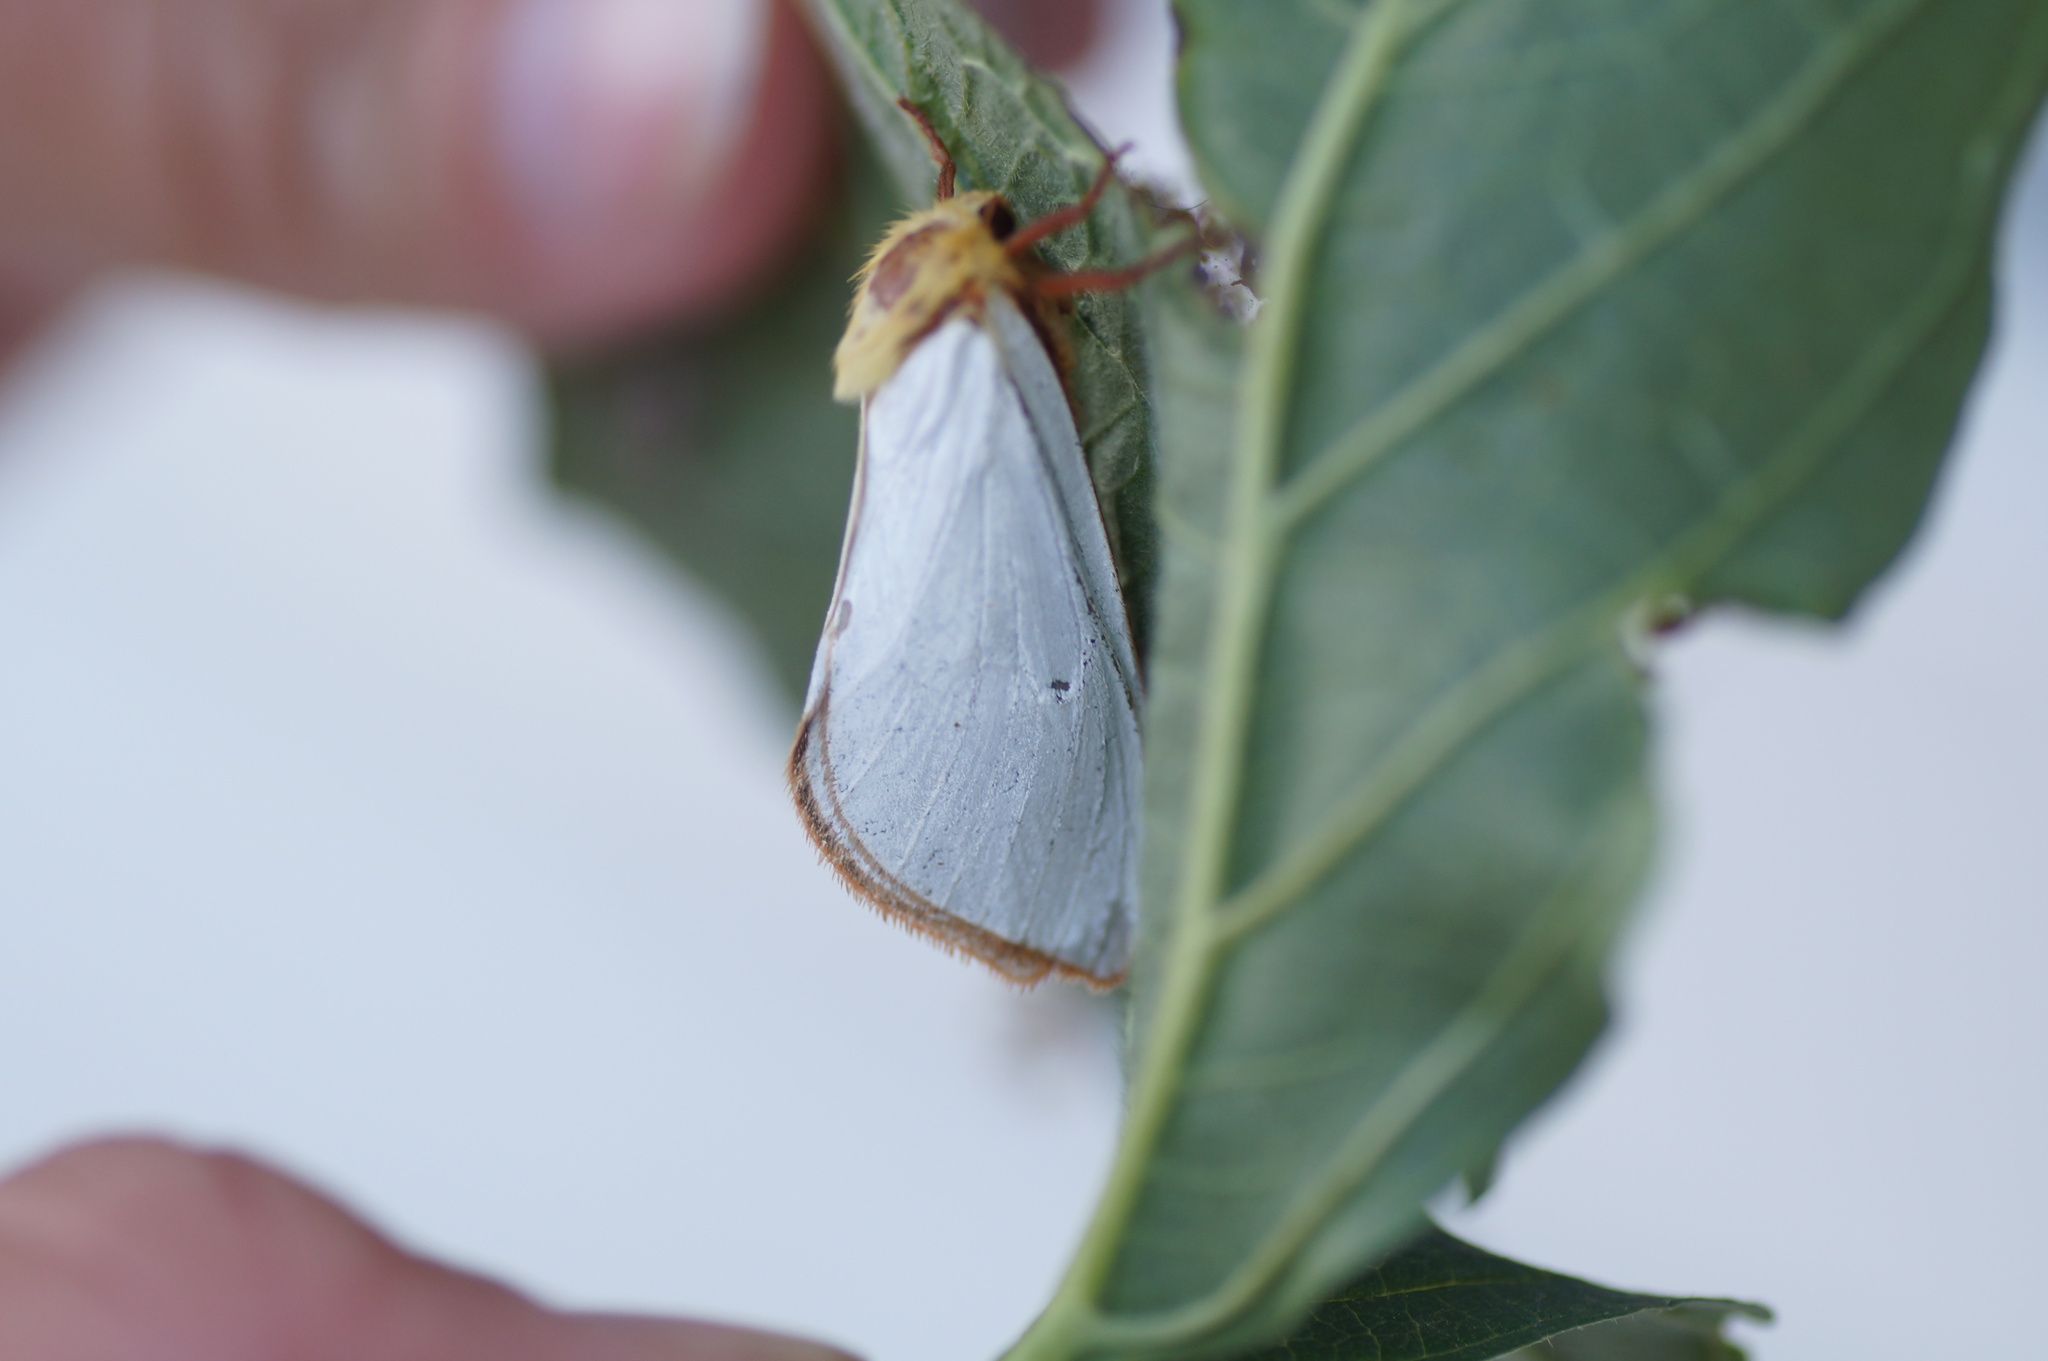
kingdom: Animalia
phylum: Arthropoda
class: Insecta
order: Lepidoptera
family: Hepialidae
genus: Hepialus
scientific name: Hepialus humuli
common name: Ghost moth
